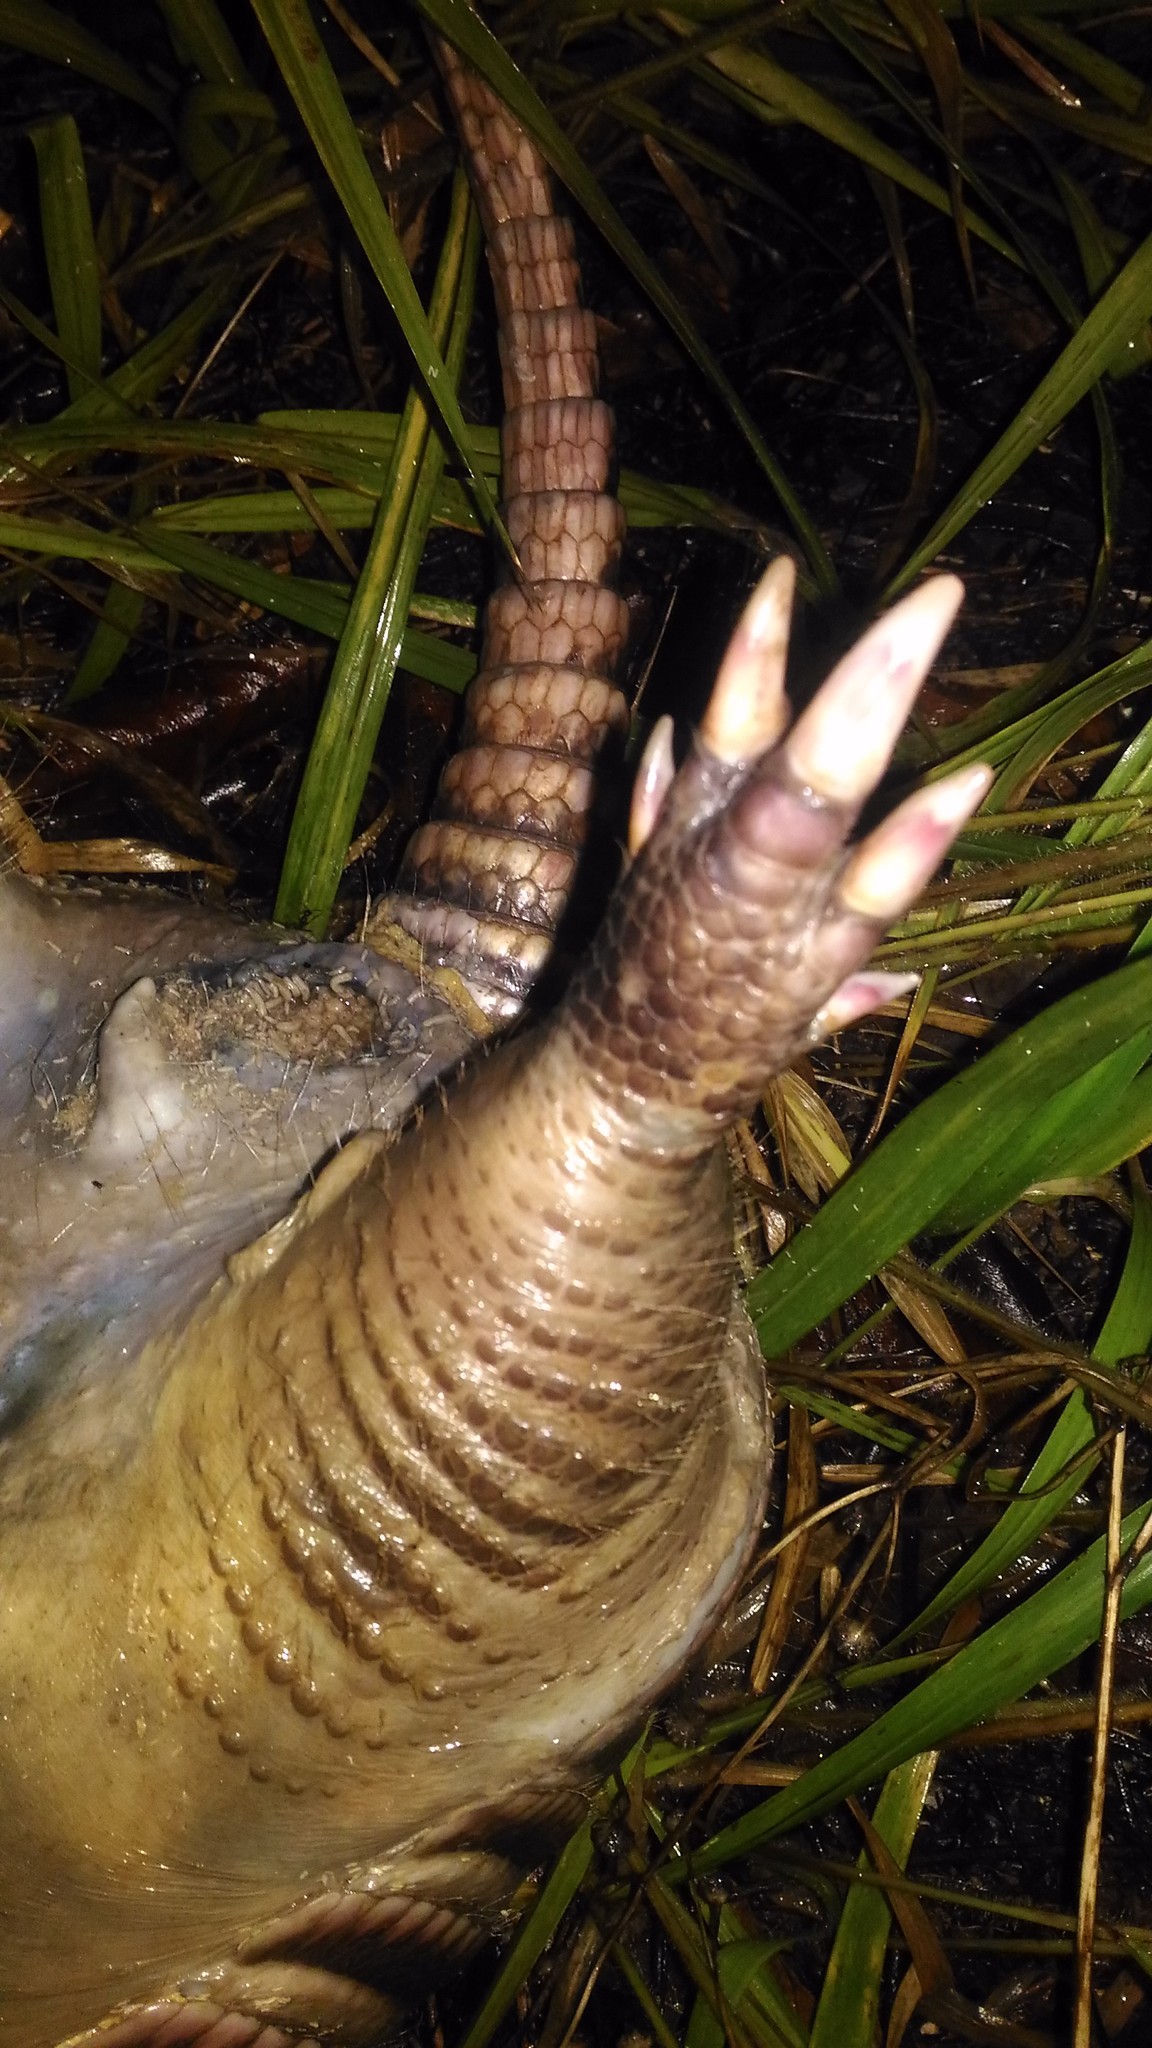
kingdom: Animalia
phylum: Chordata
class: Mammalia
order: Cingulata
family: Dasypodidae
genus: Dasypus
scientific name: Dasypus novemcinctus
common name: Nine-banded armadillo
